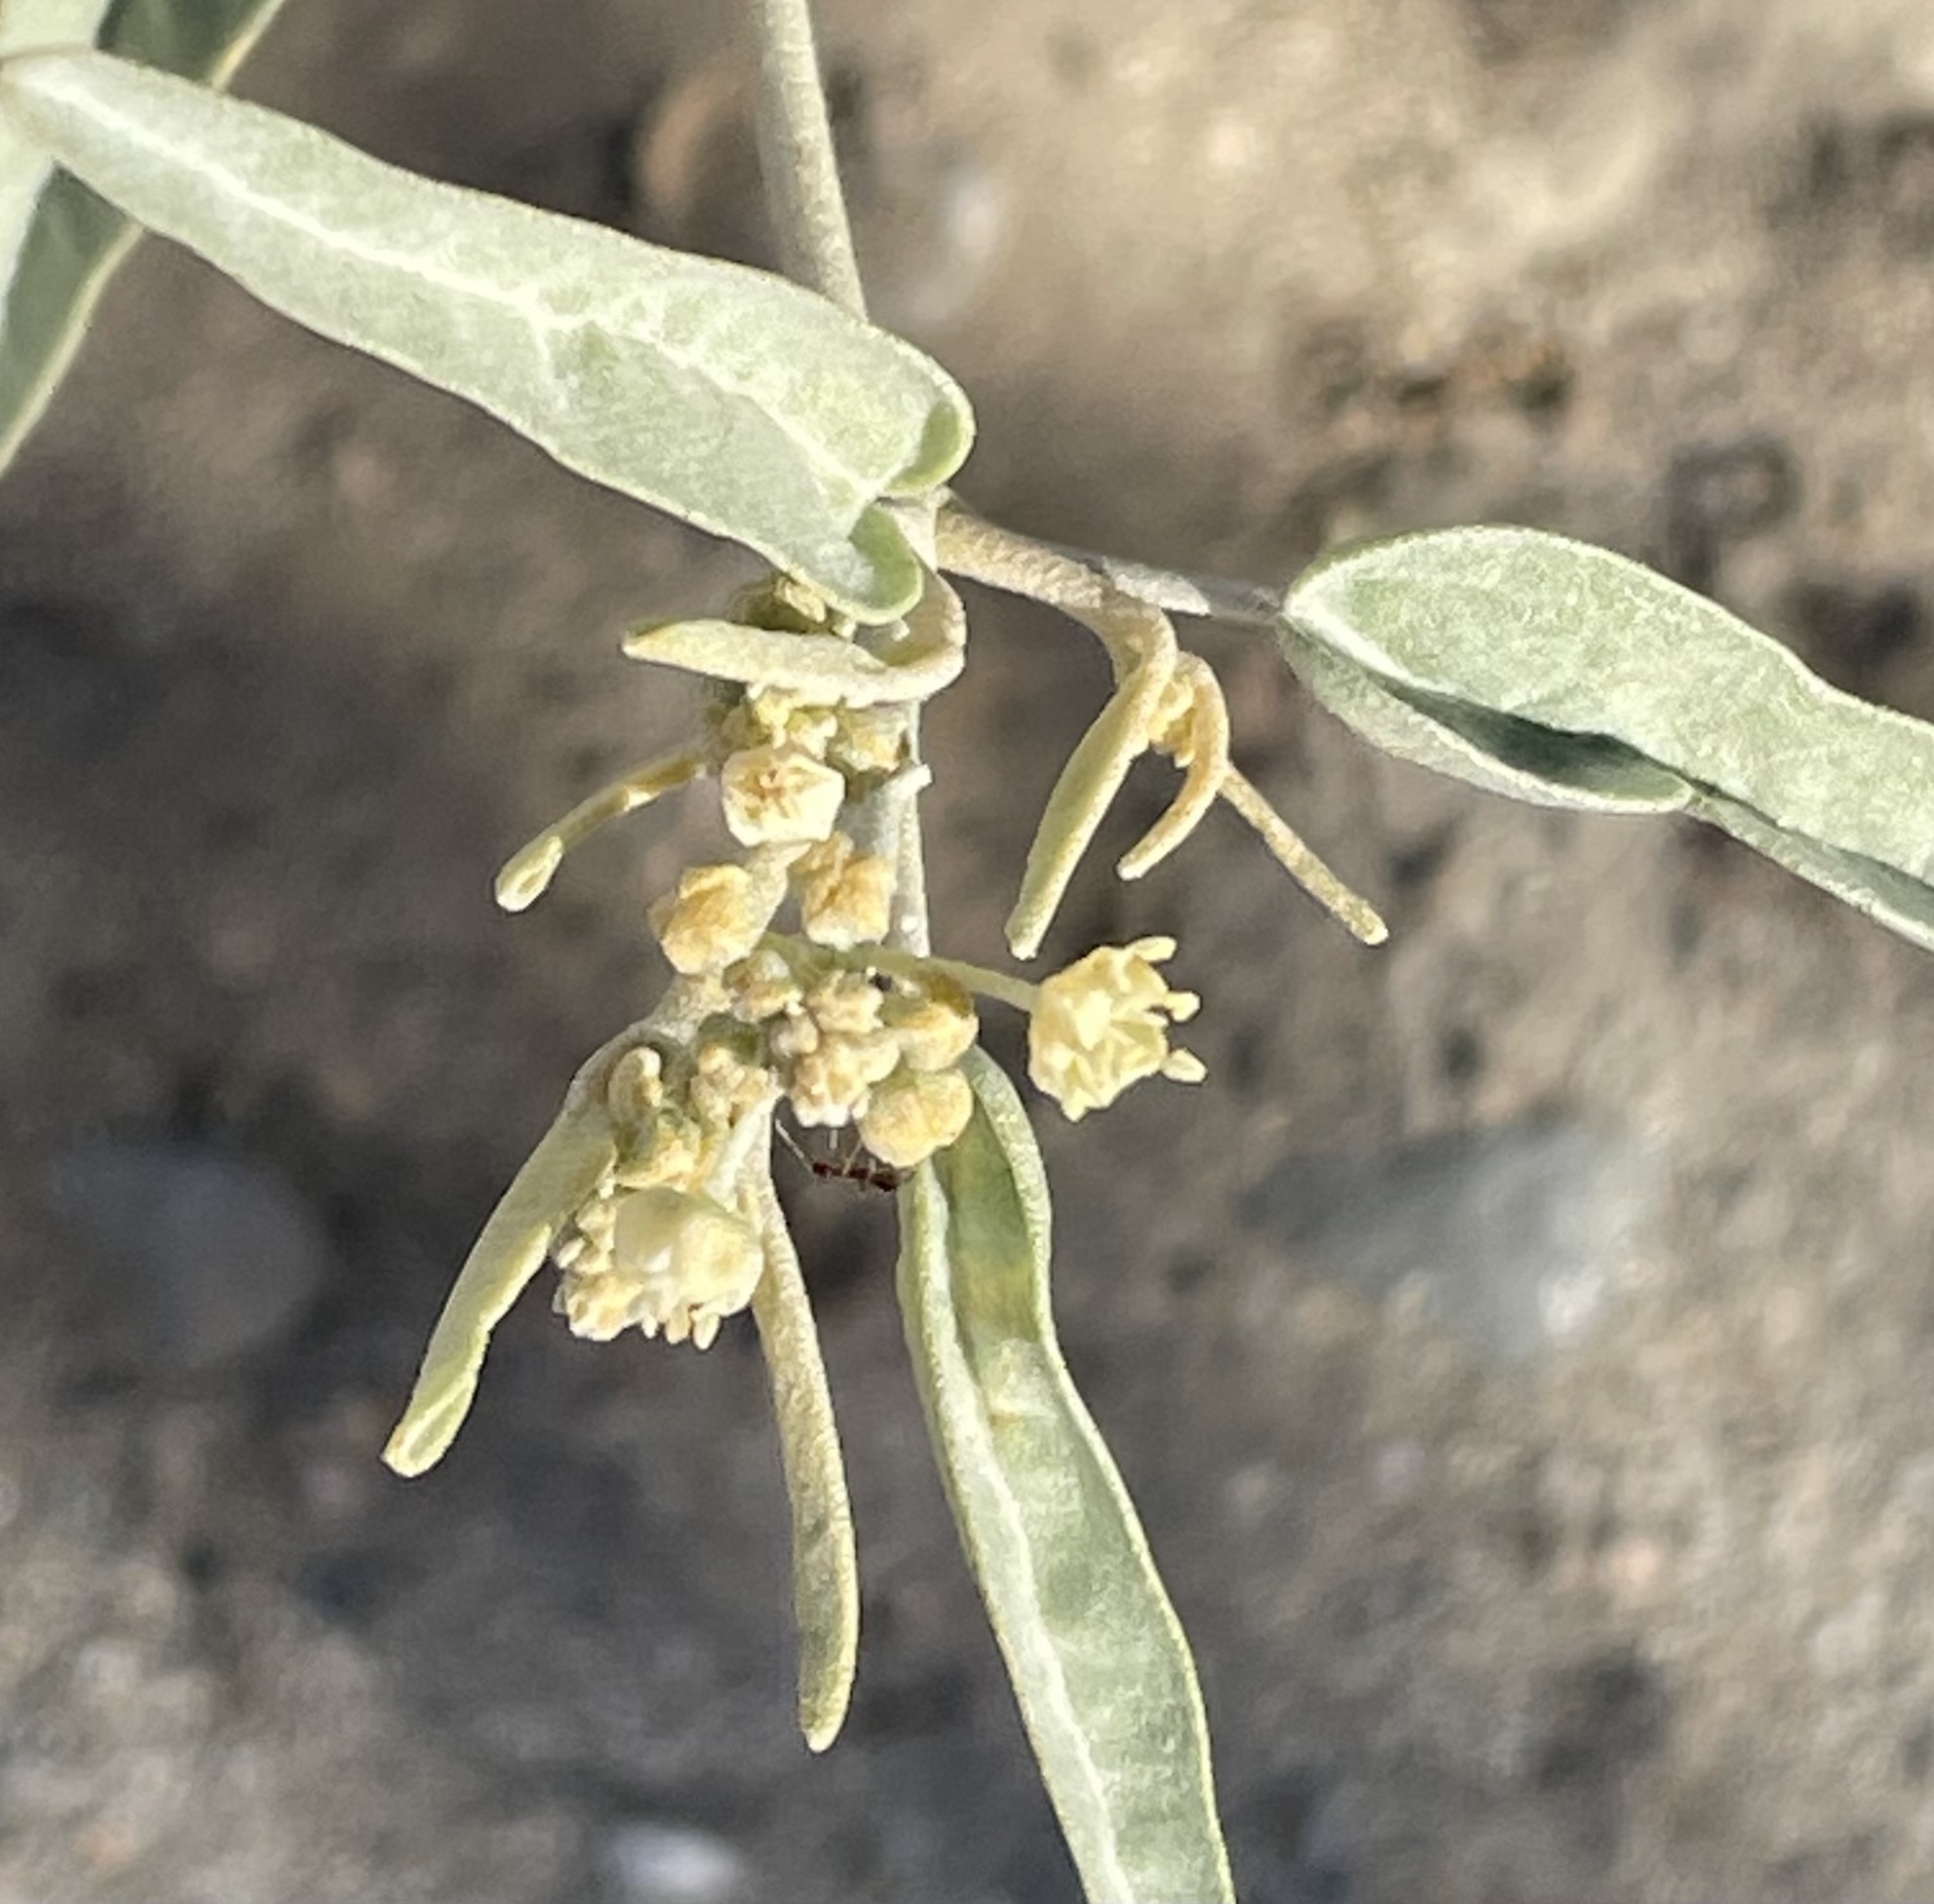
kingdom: Plantae
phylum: Tracheophyta
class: Magnoliopsida
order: Malpighiales
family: Euphorbiaceae
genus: Croton
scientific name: Croton californicus
